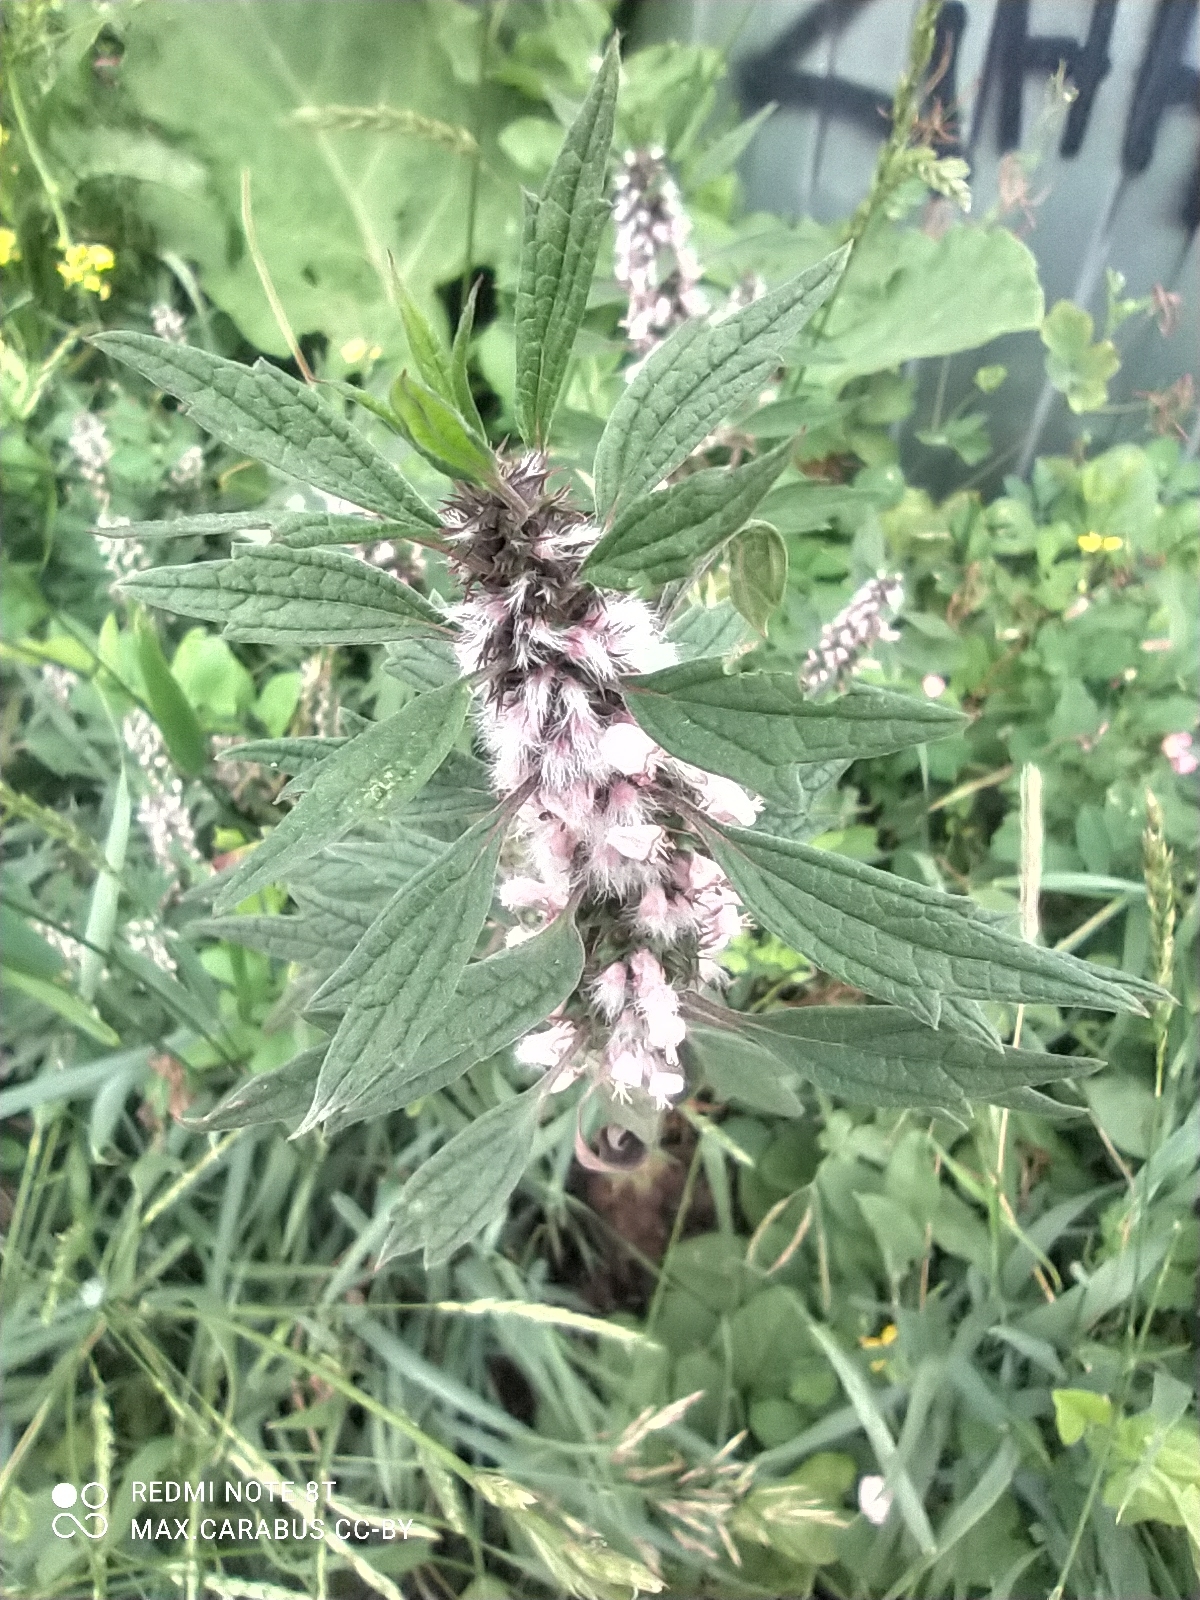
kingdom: Plantae
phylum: Tracheophyta
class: Magnoliopsida
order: Lamiales
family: Lamiaceae
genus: Leonurus
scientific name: Leonurus quinquelobatus
